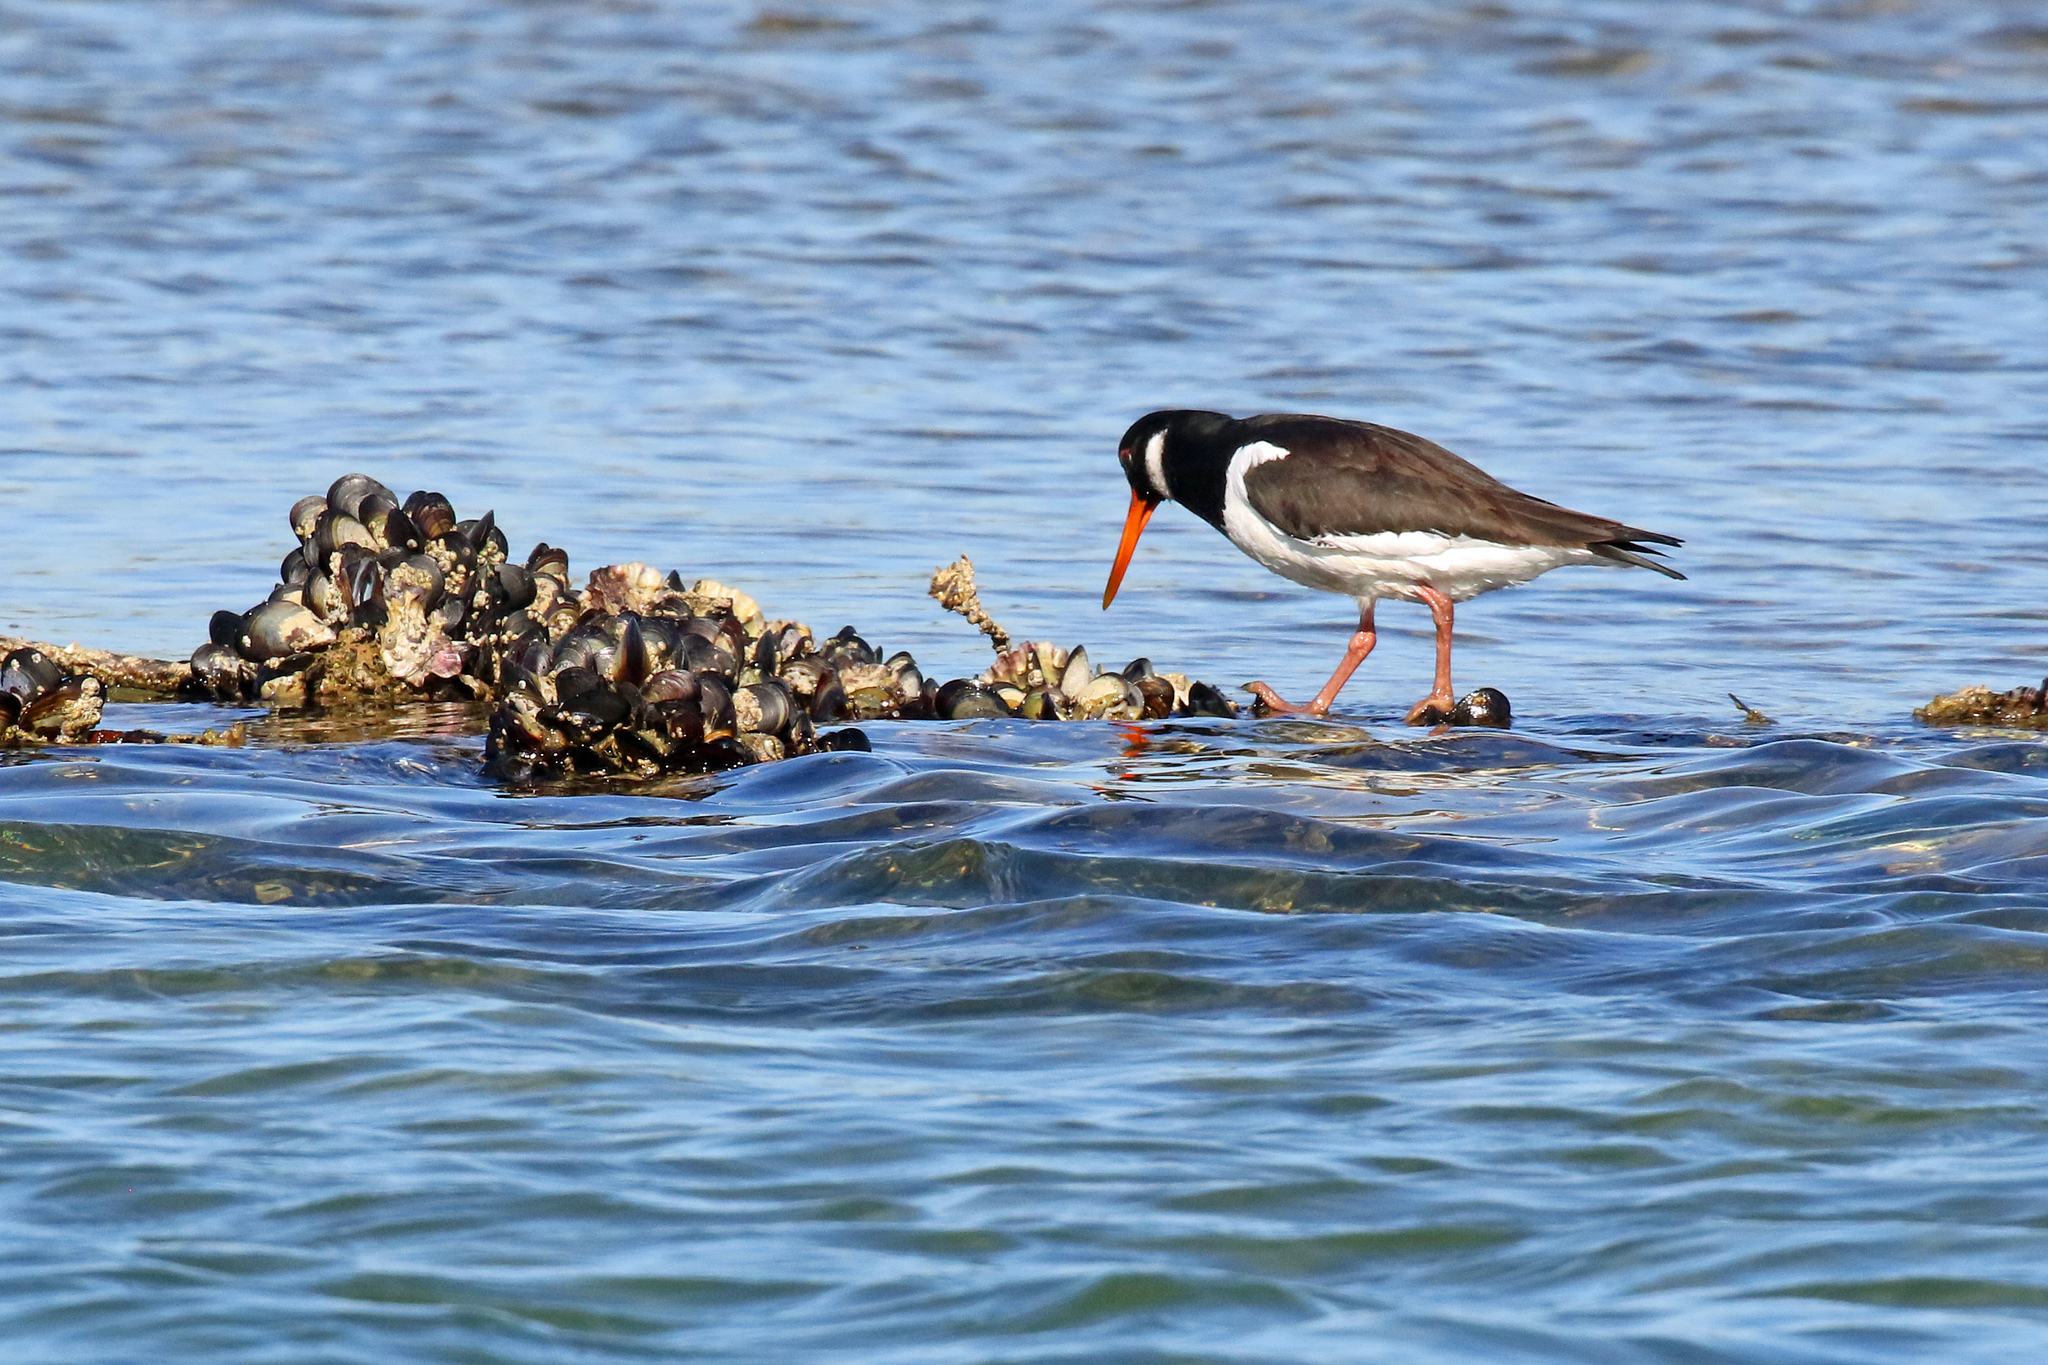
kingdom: Animalia
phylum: Chordata
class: Aves
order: Charadriiformes
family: Haematopodidae
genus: Haematopus
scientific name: Haematopus ostralegus
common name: Eurasian oystercatcher
